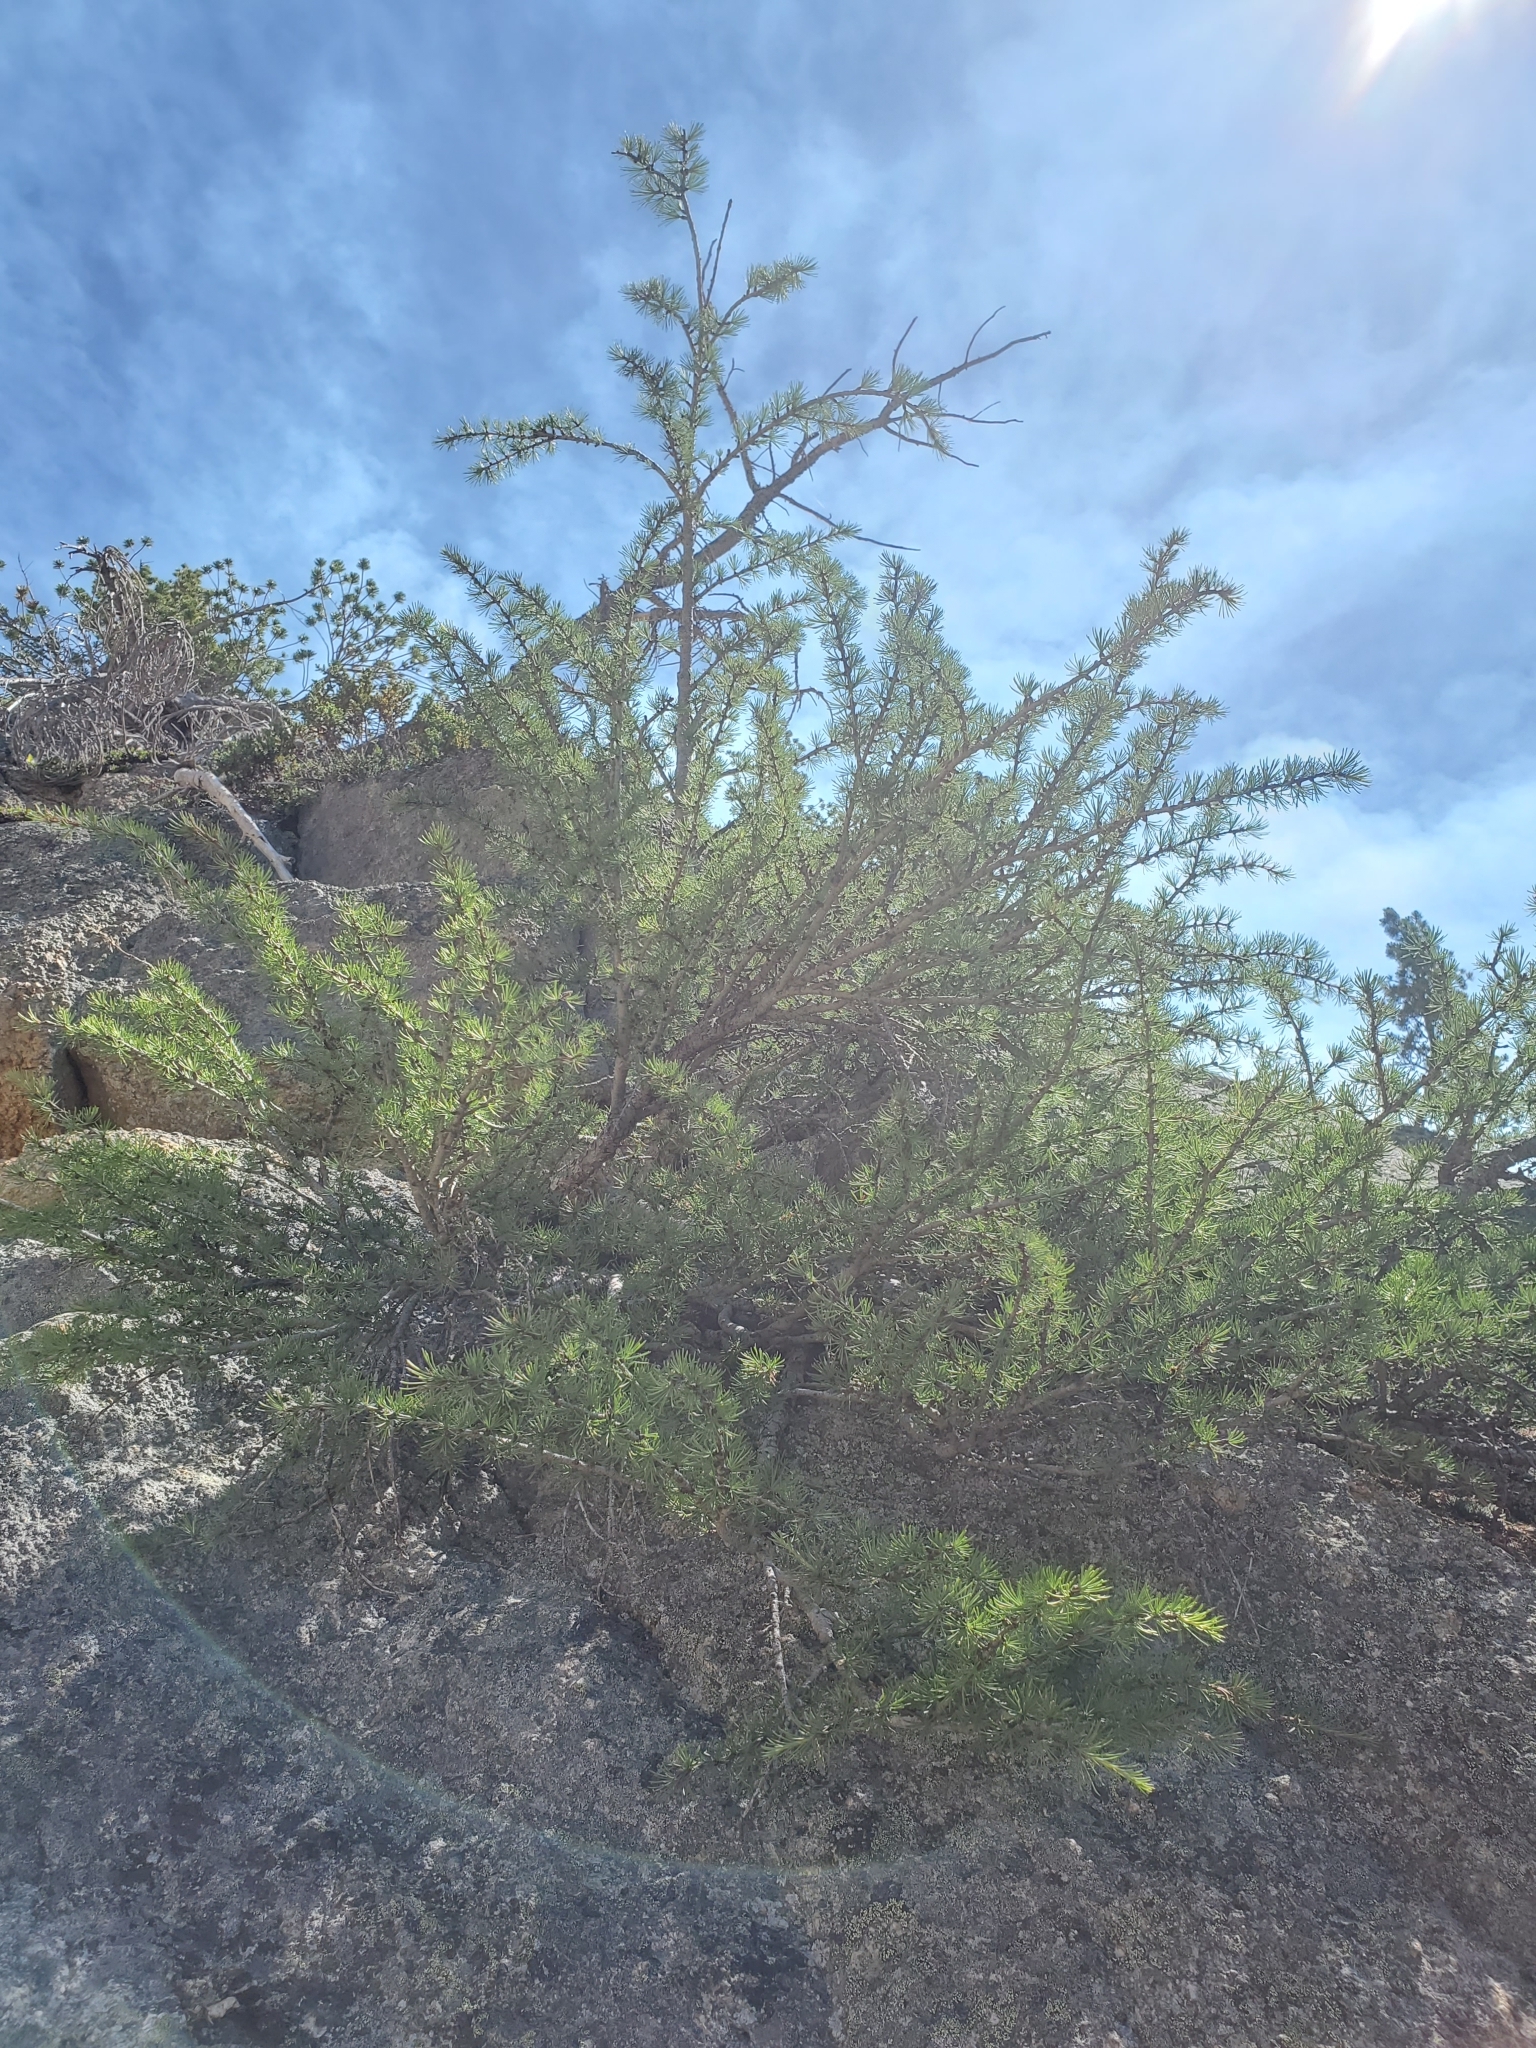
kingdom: Plantae
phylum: Tracheophyta
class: Pinopsida
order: Pinales
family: Pinaceae
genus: Larix
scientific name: Larix lyallii
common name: Alpine larch
